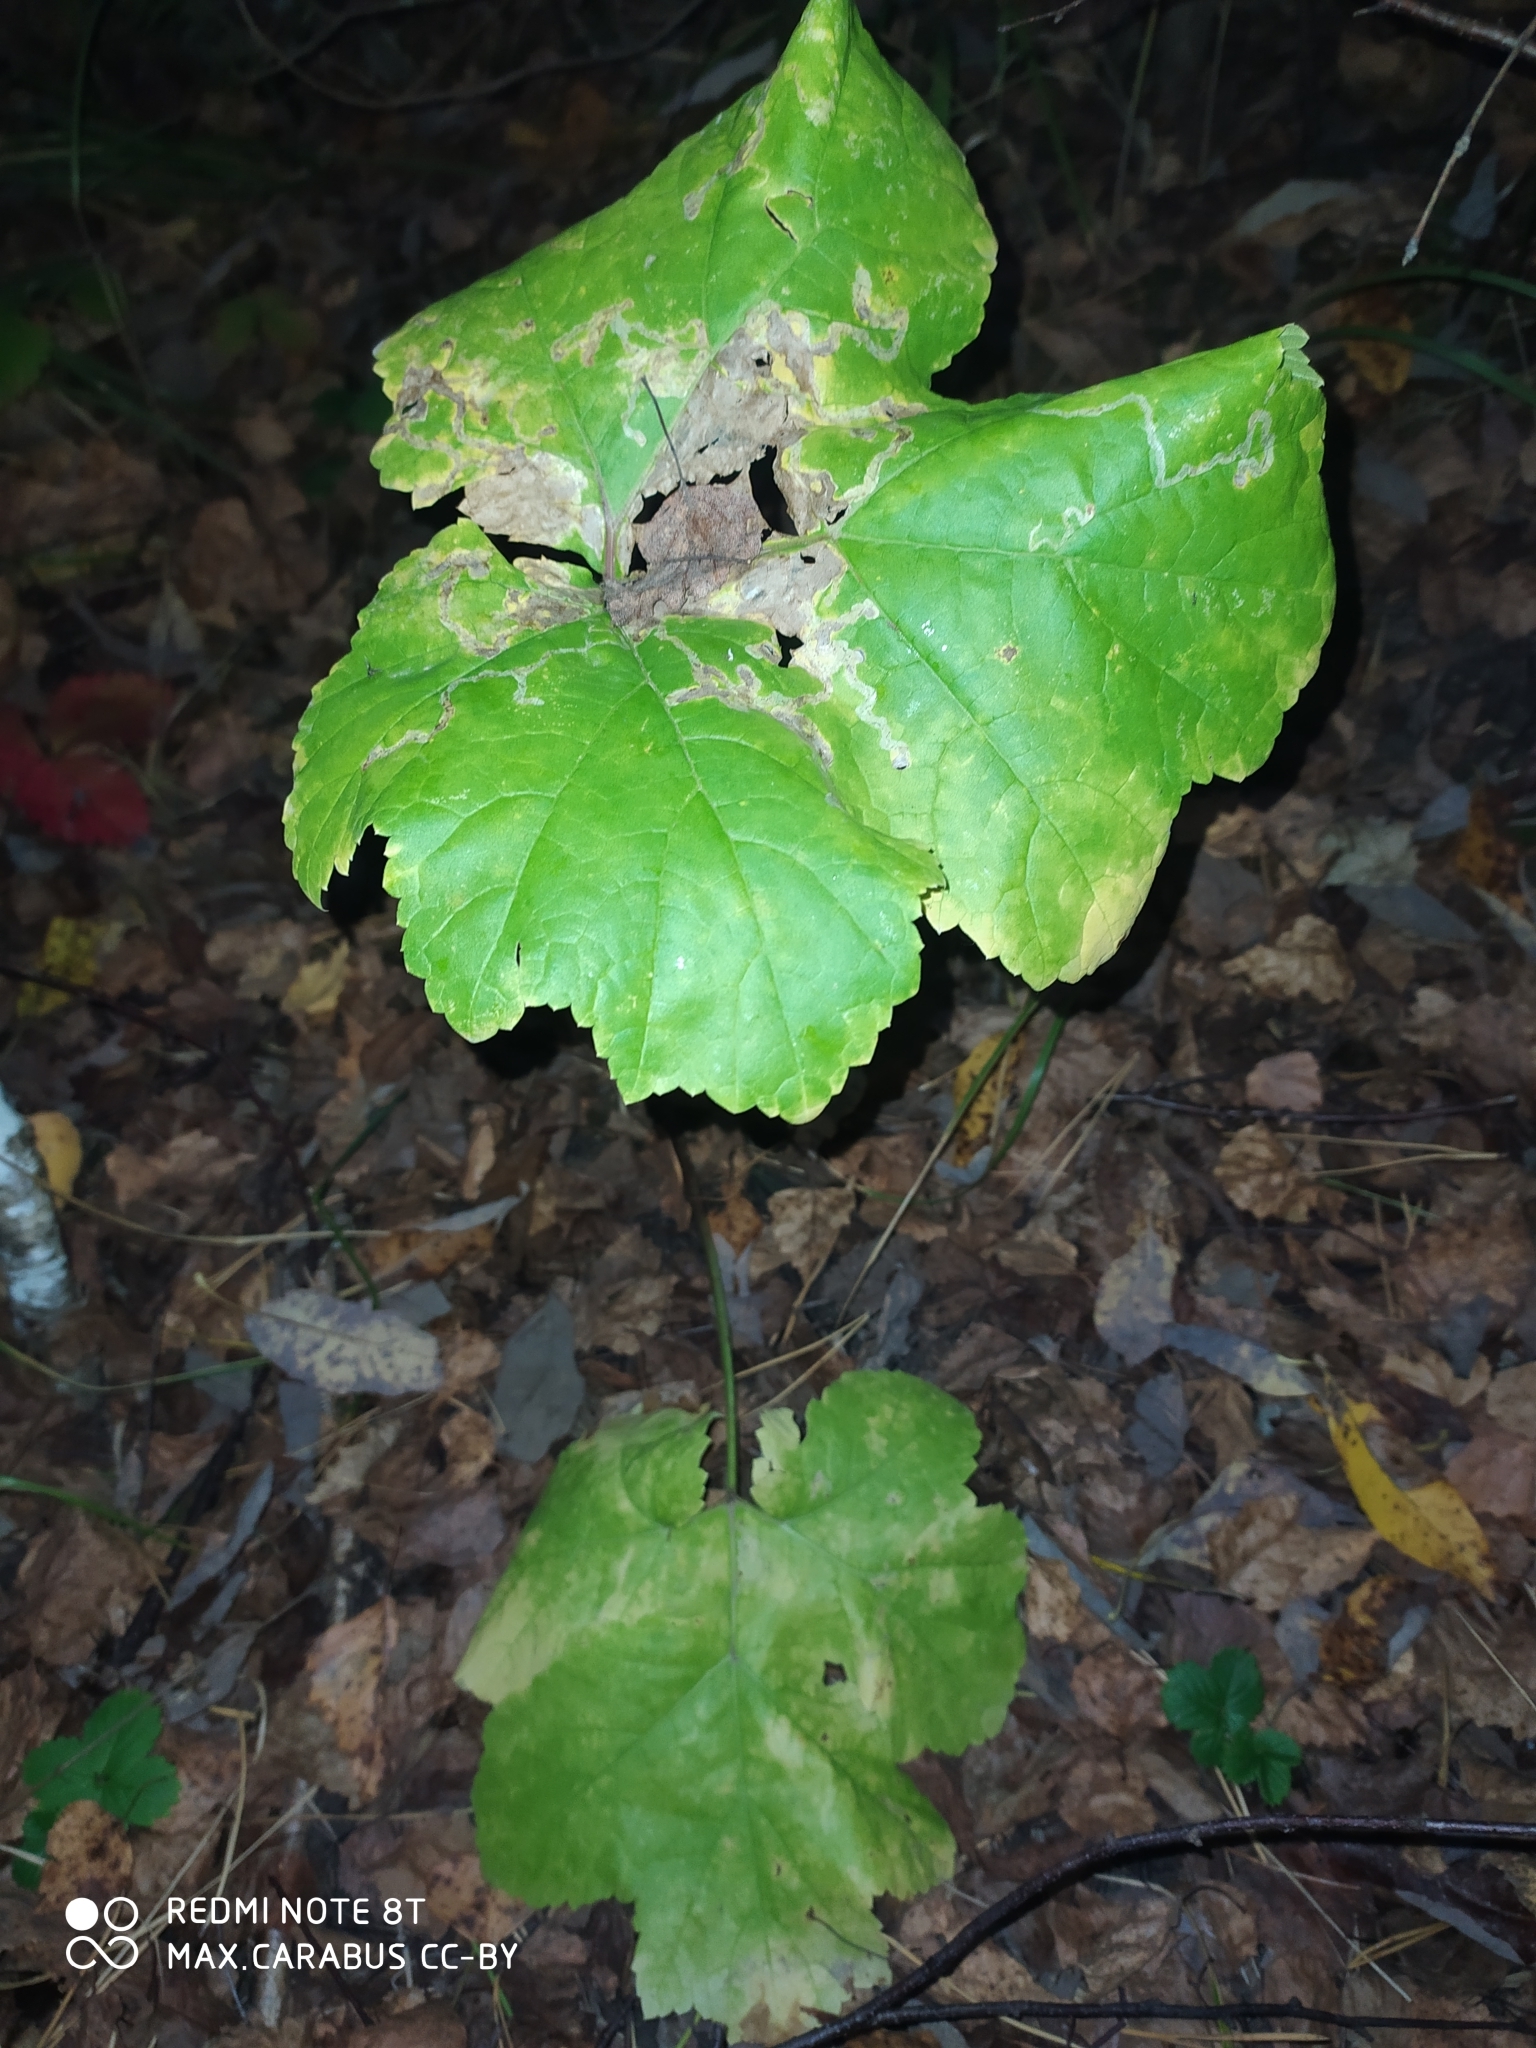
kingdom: Plantae
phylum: Tracheophyta
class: Magnoliopsida
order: Apiales
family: Apiaceae
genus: Heracleum
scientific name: Heracleum sosnowskyi
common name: Sosnowsky's hogweed
